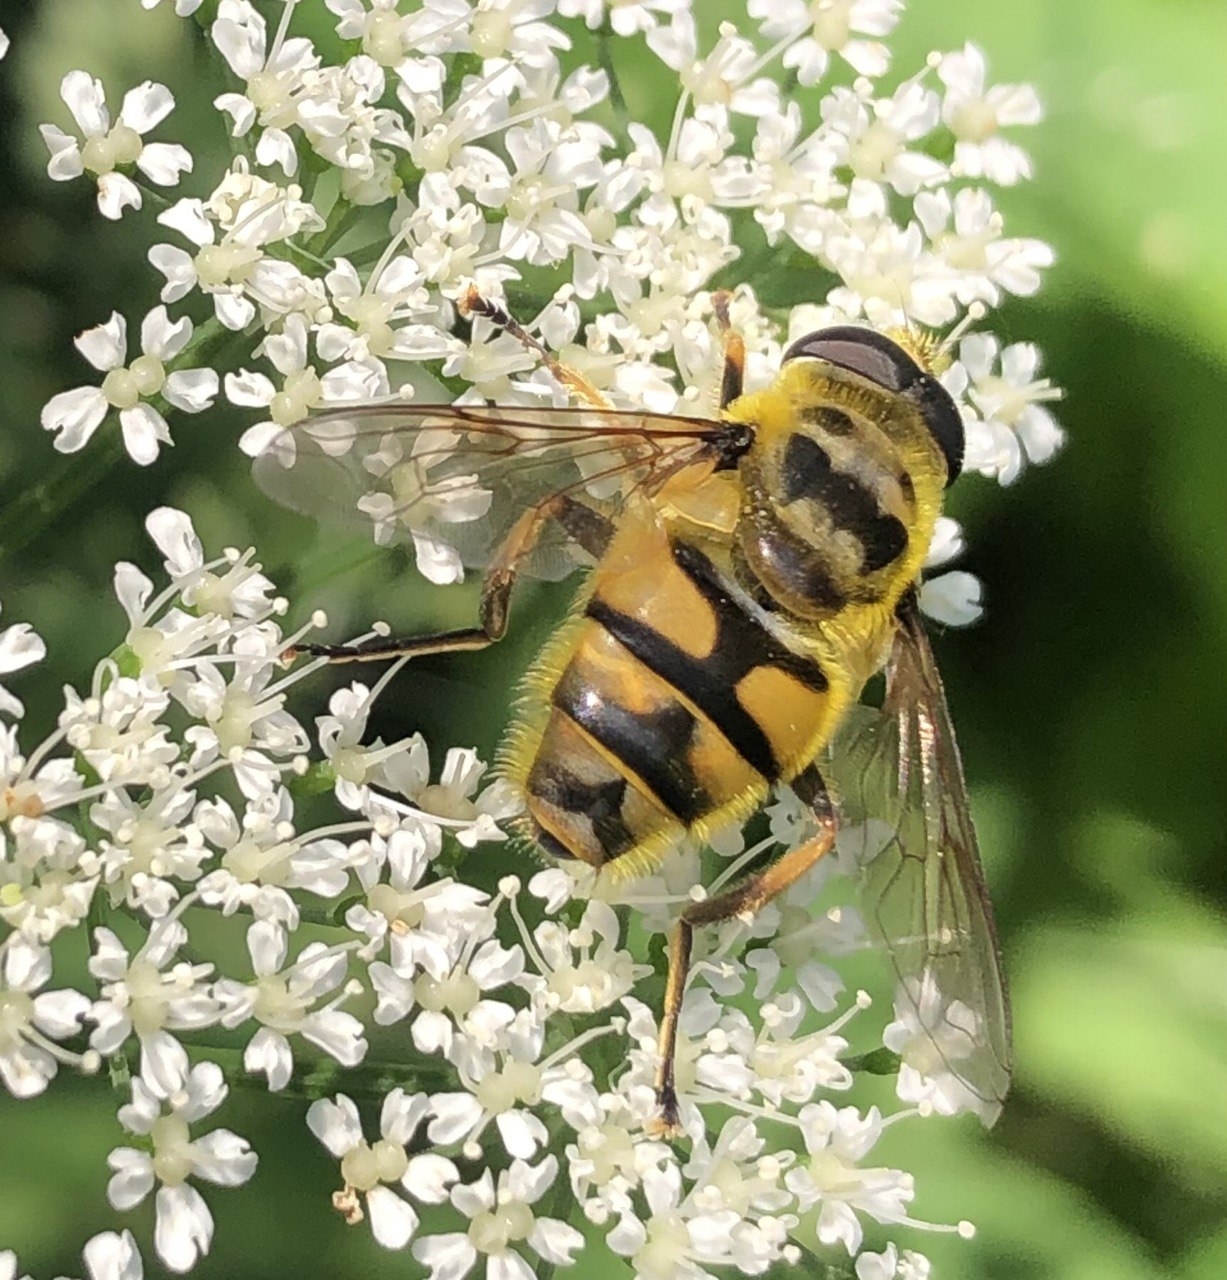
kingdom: Animalia
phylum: Arthropoda
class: Insecta
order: Diptera
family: Syrphidae
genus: Myathropa
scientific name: Myathropa florea
